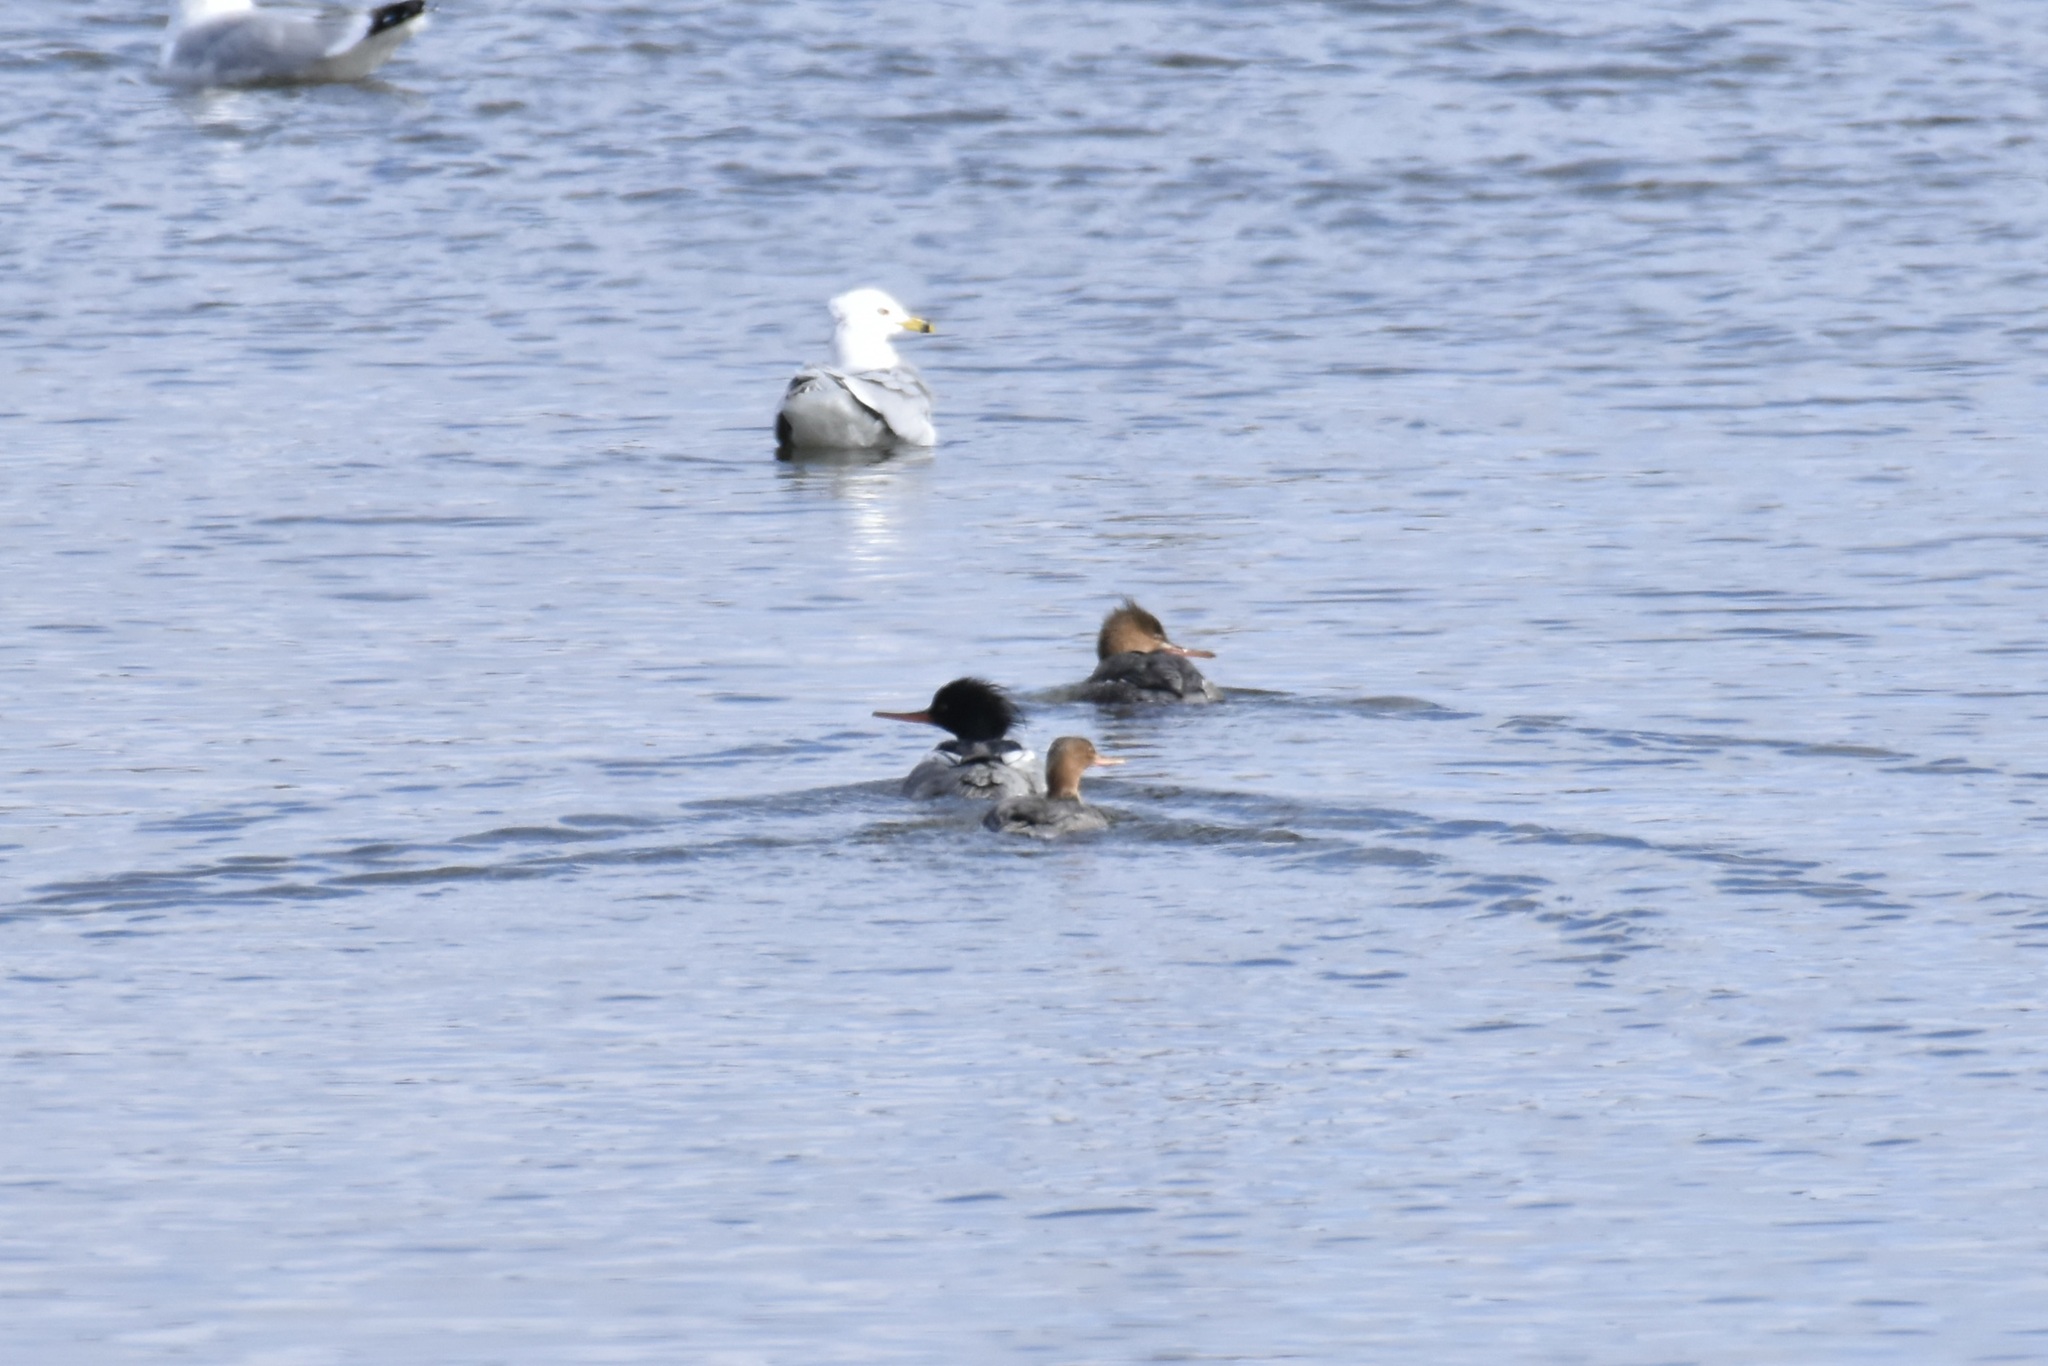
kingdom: Animalia
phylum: Chordata
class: Aves
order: Anseriformes
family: Anatidae
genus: Mergus
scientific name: Mergus serrator
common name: Red-breasted merganser
